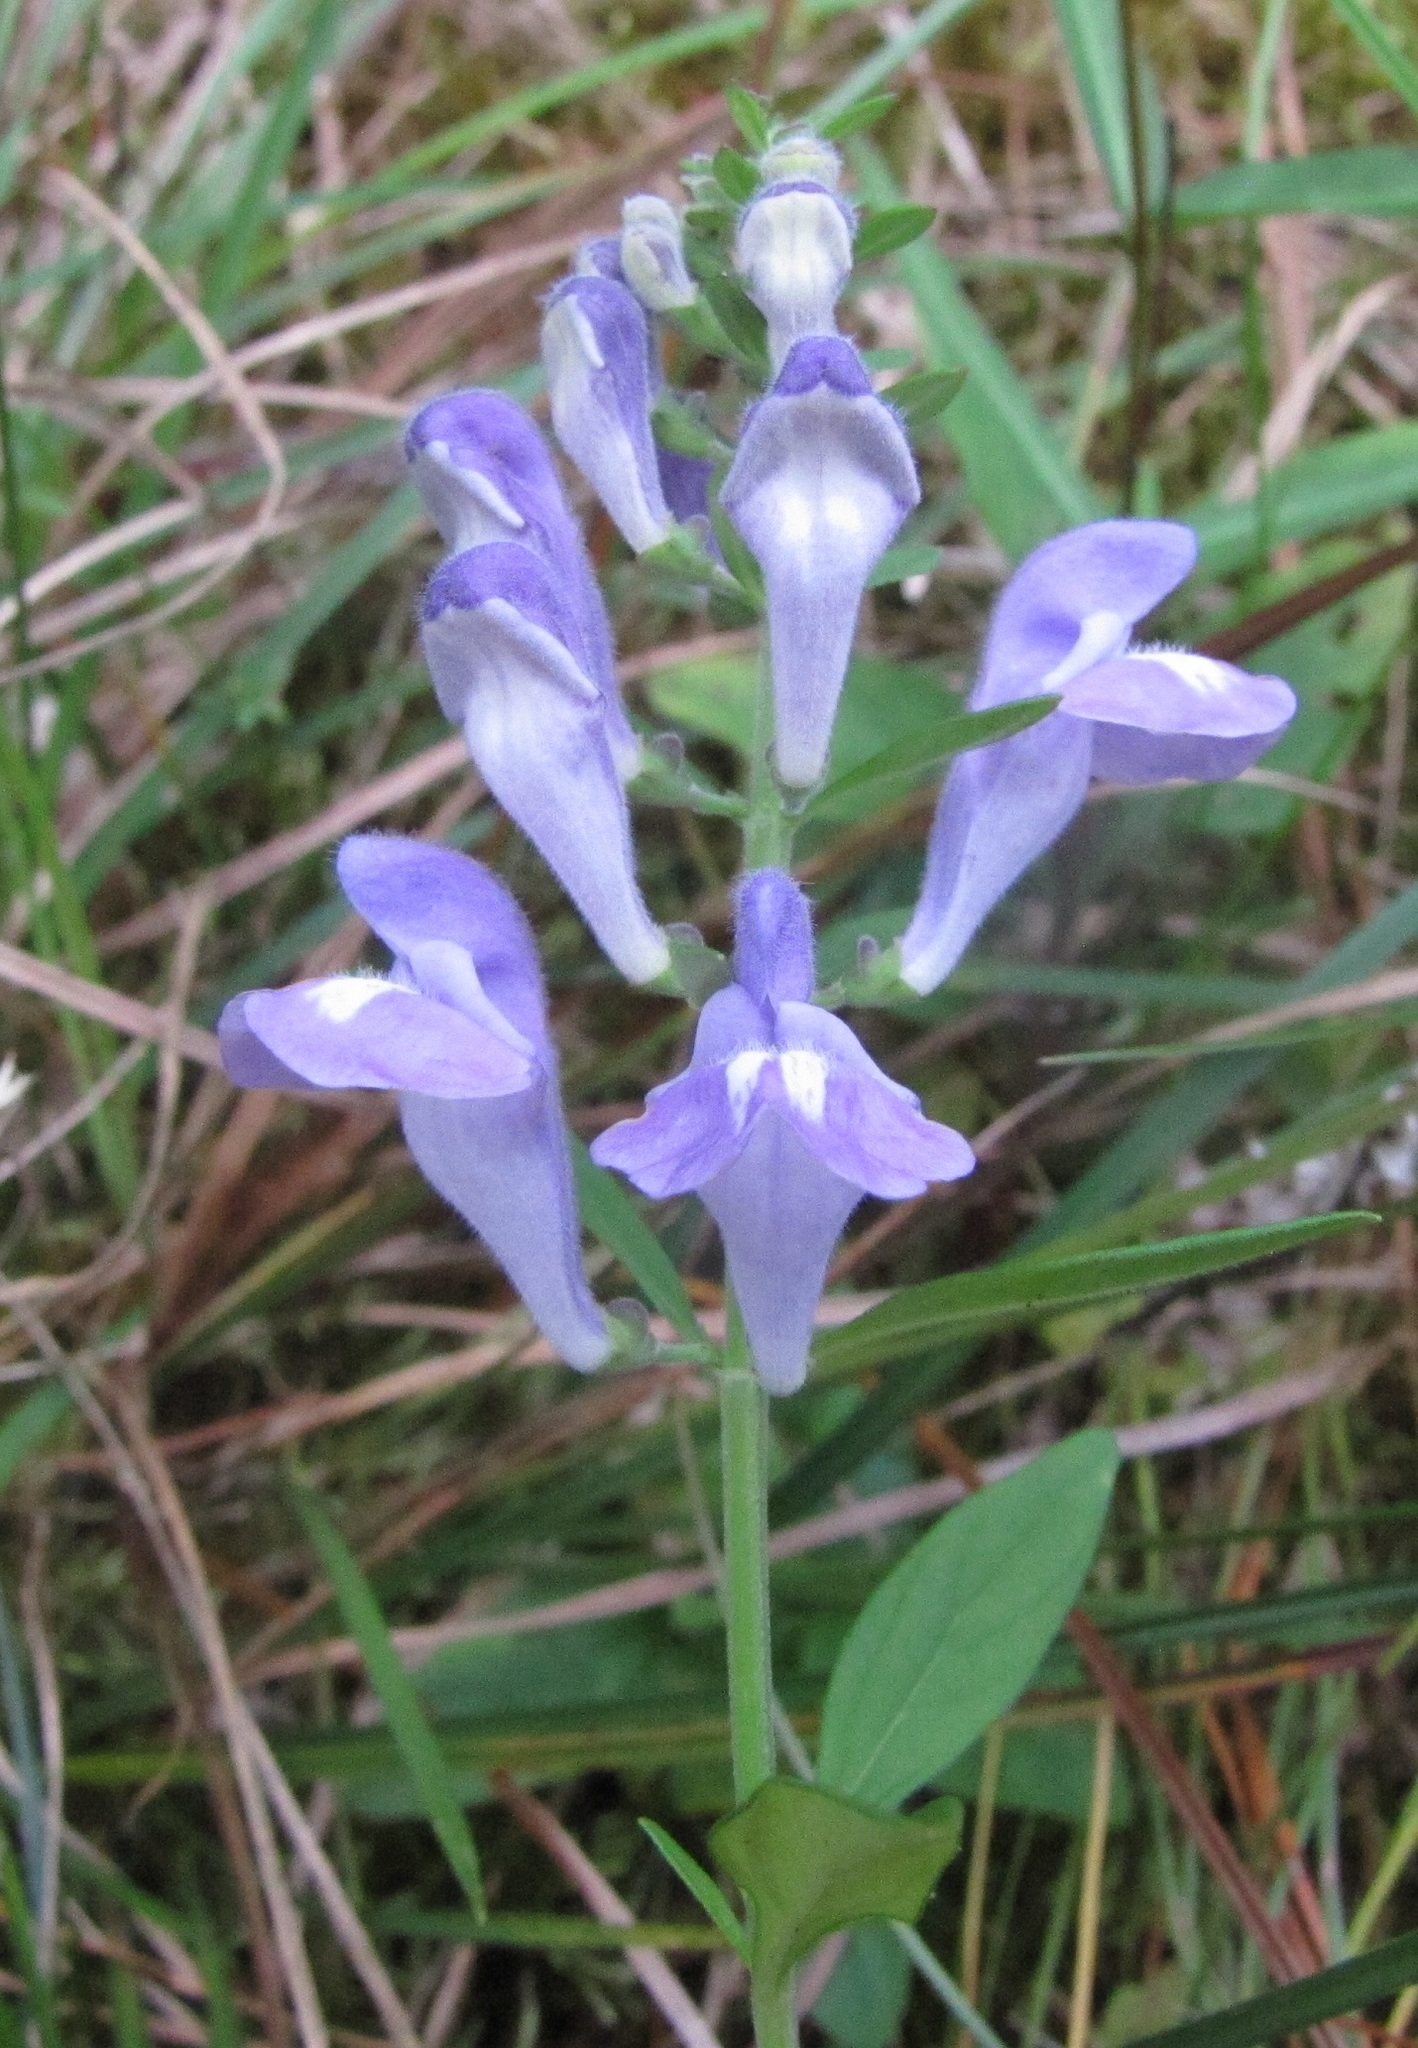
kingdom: Plantae
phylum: Tracheophyta
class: Magnoliopsida
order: Lamiales
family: Lamiaceae
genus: Scutellaria
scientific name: Scutellaria integrifolia
